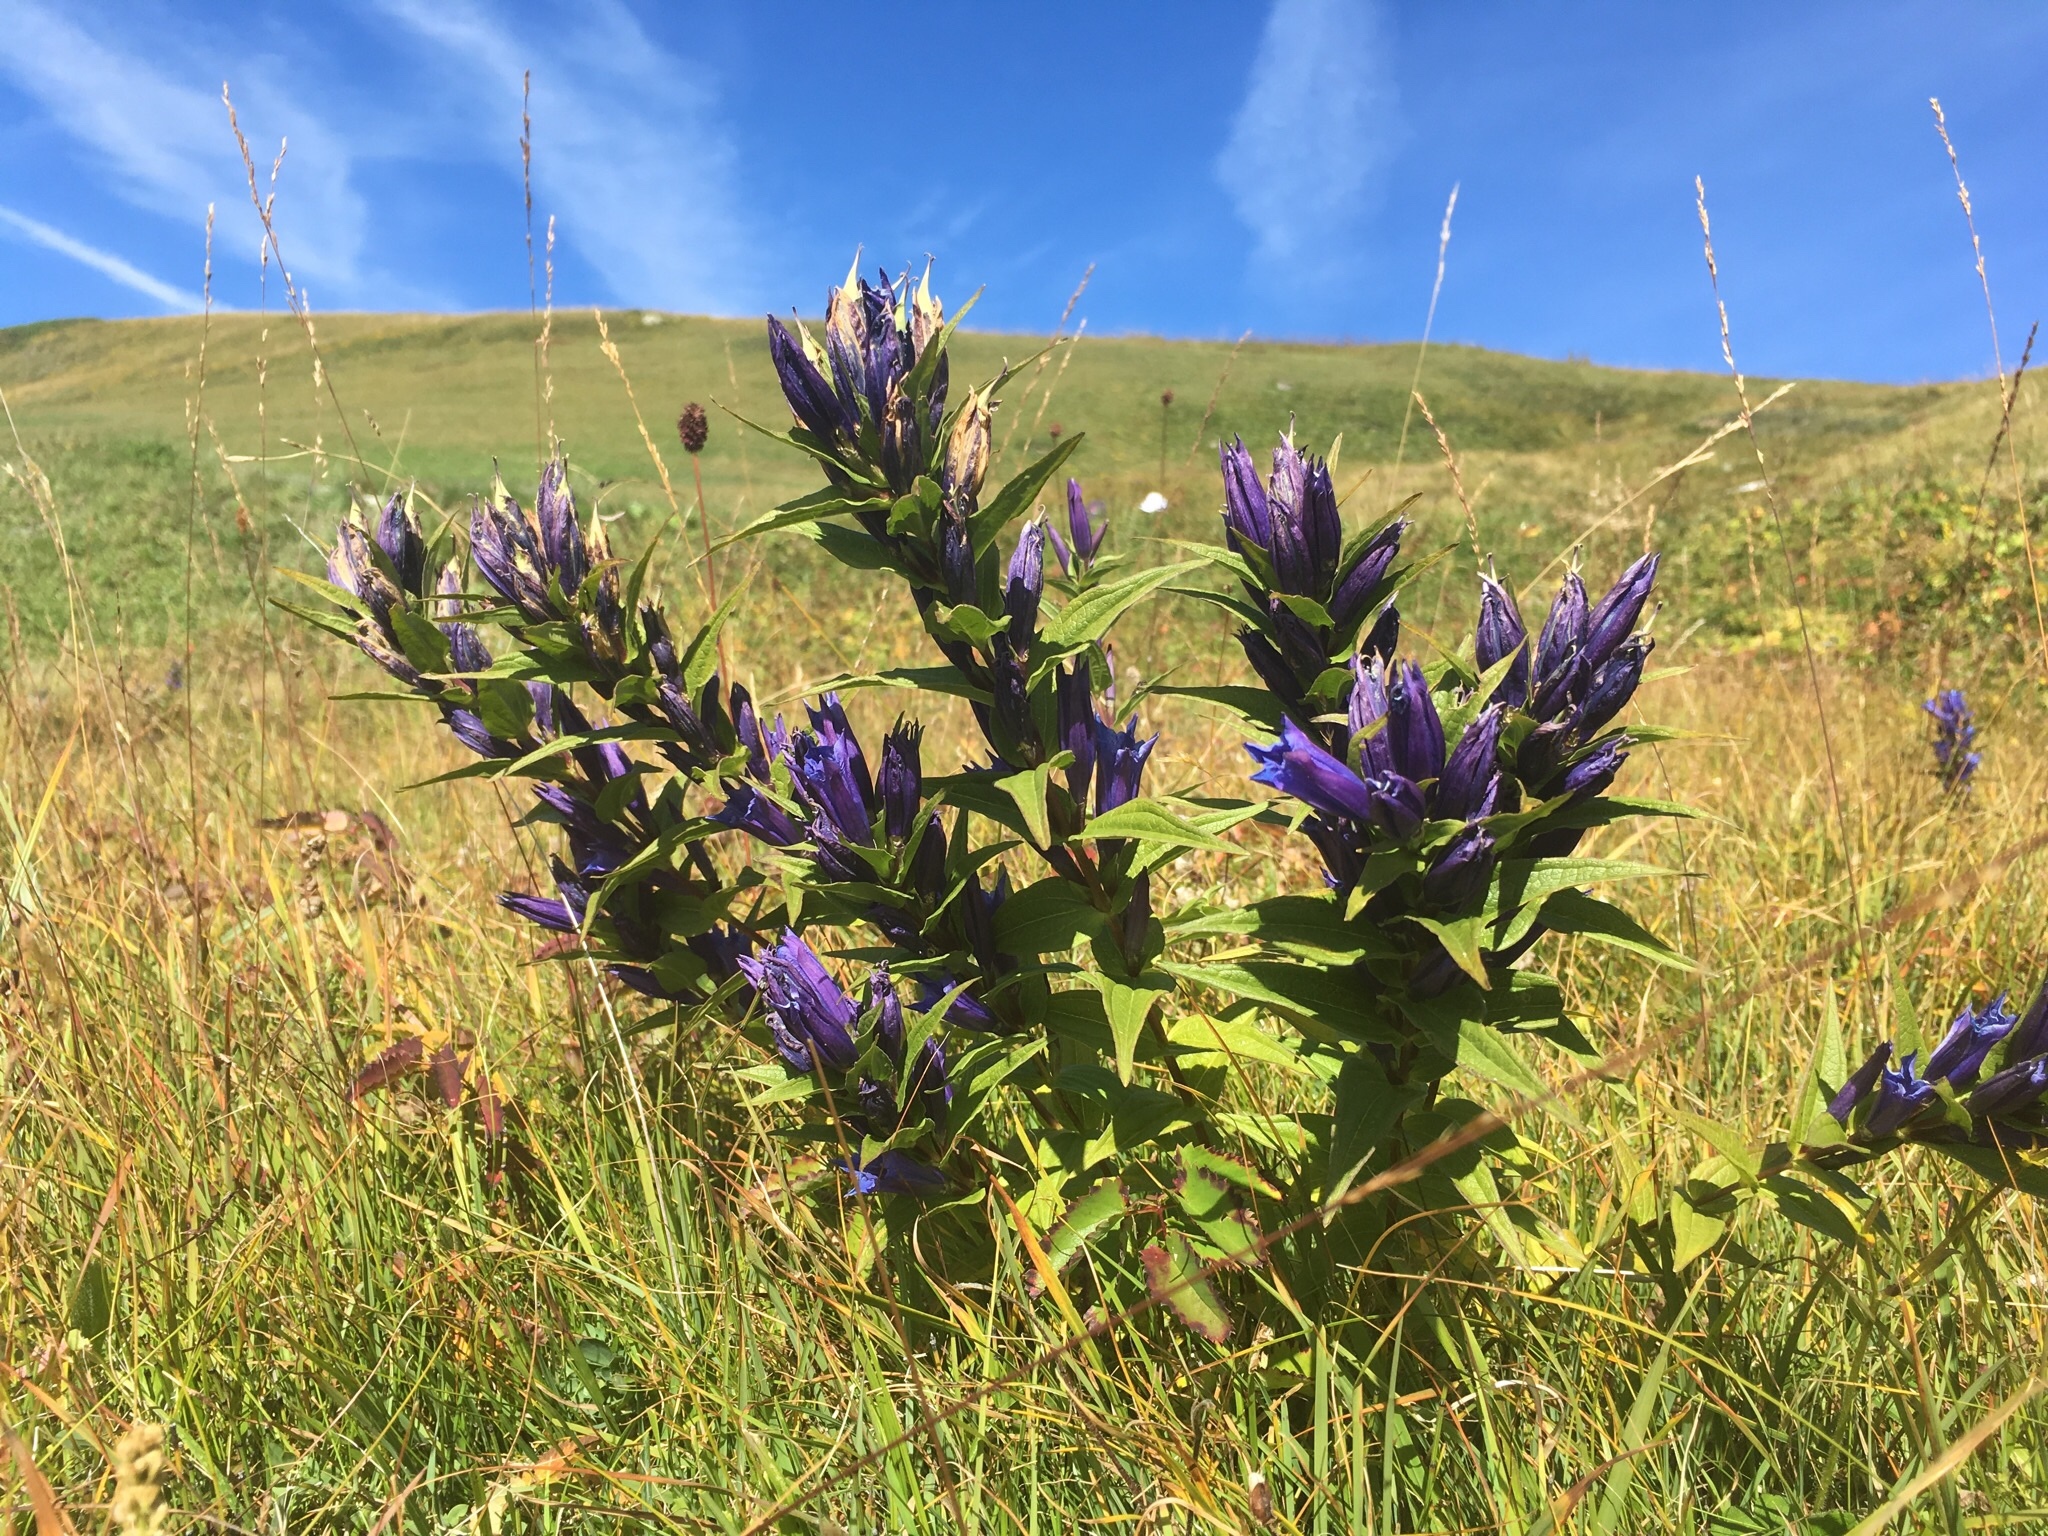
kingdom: Plantae
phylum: Tracheophyta
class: Magnoliopsida
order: Gentianales
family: Gentianaceae
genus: Gentiana
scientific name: Gentiana asclepiadea
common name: Willow gentian
